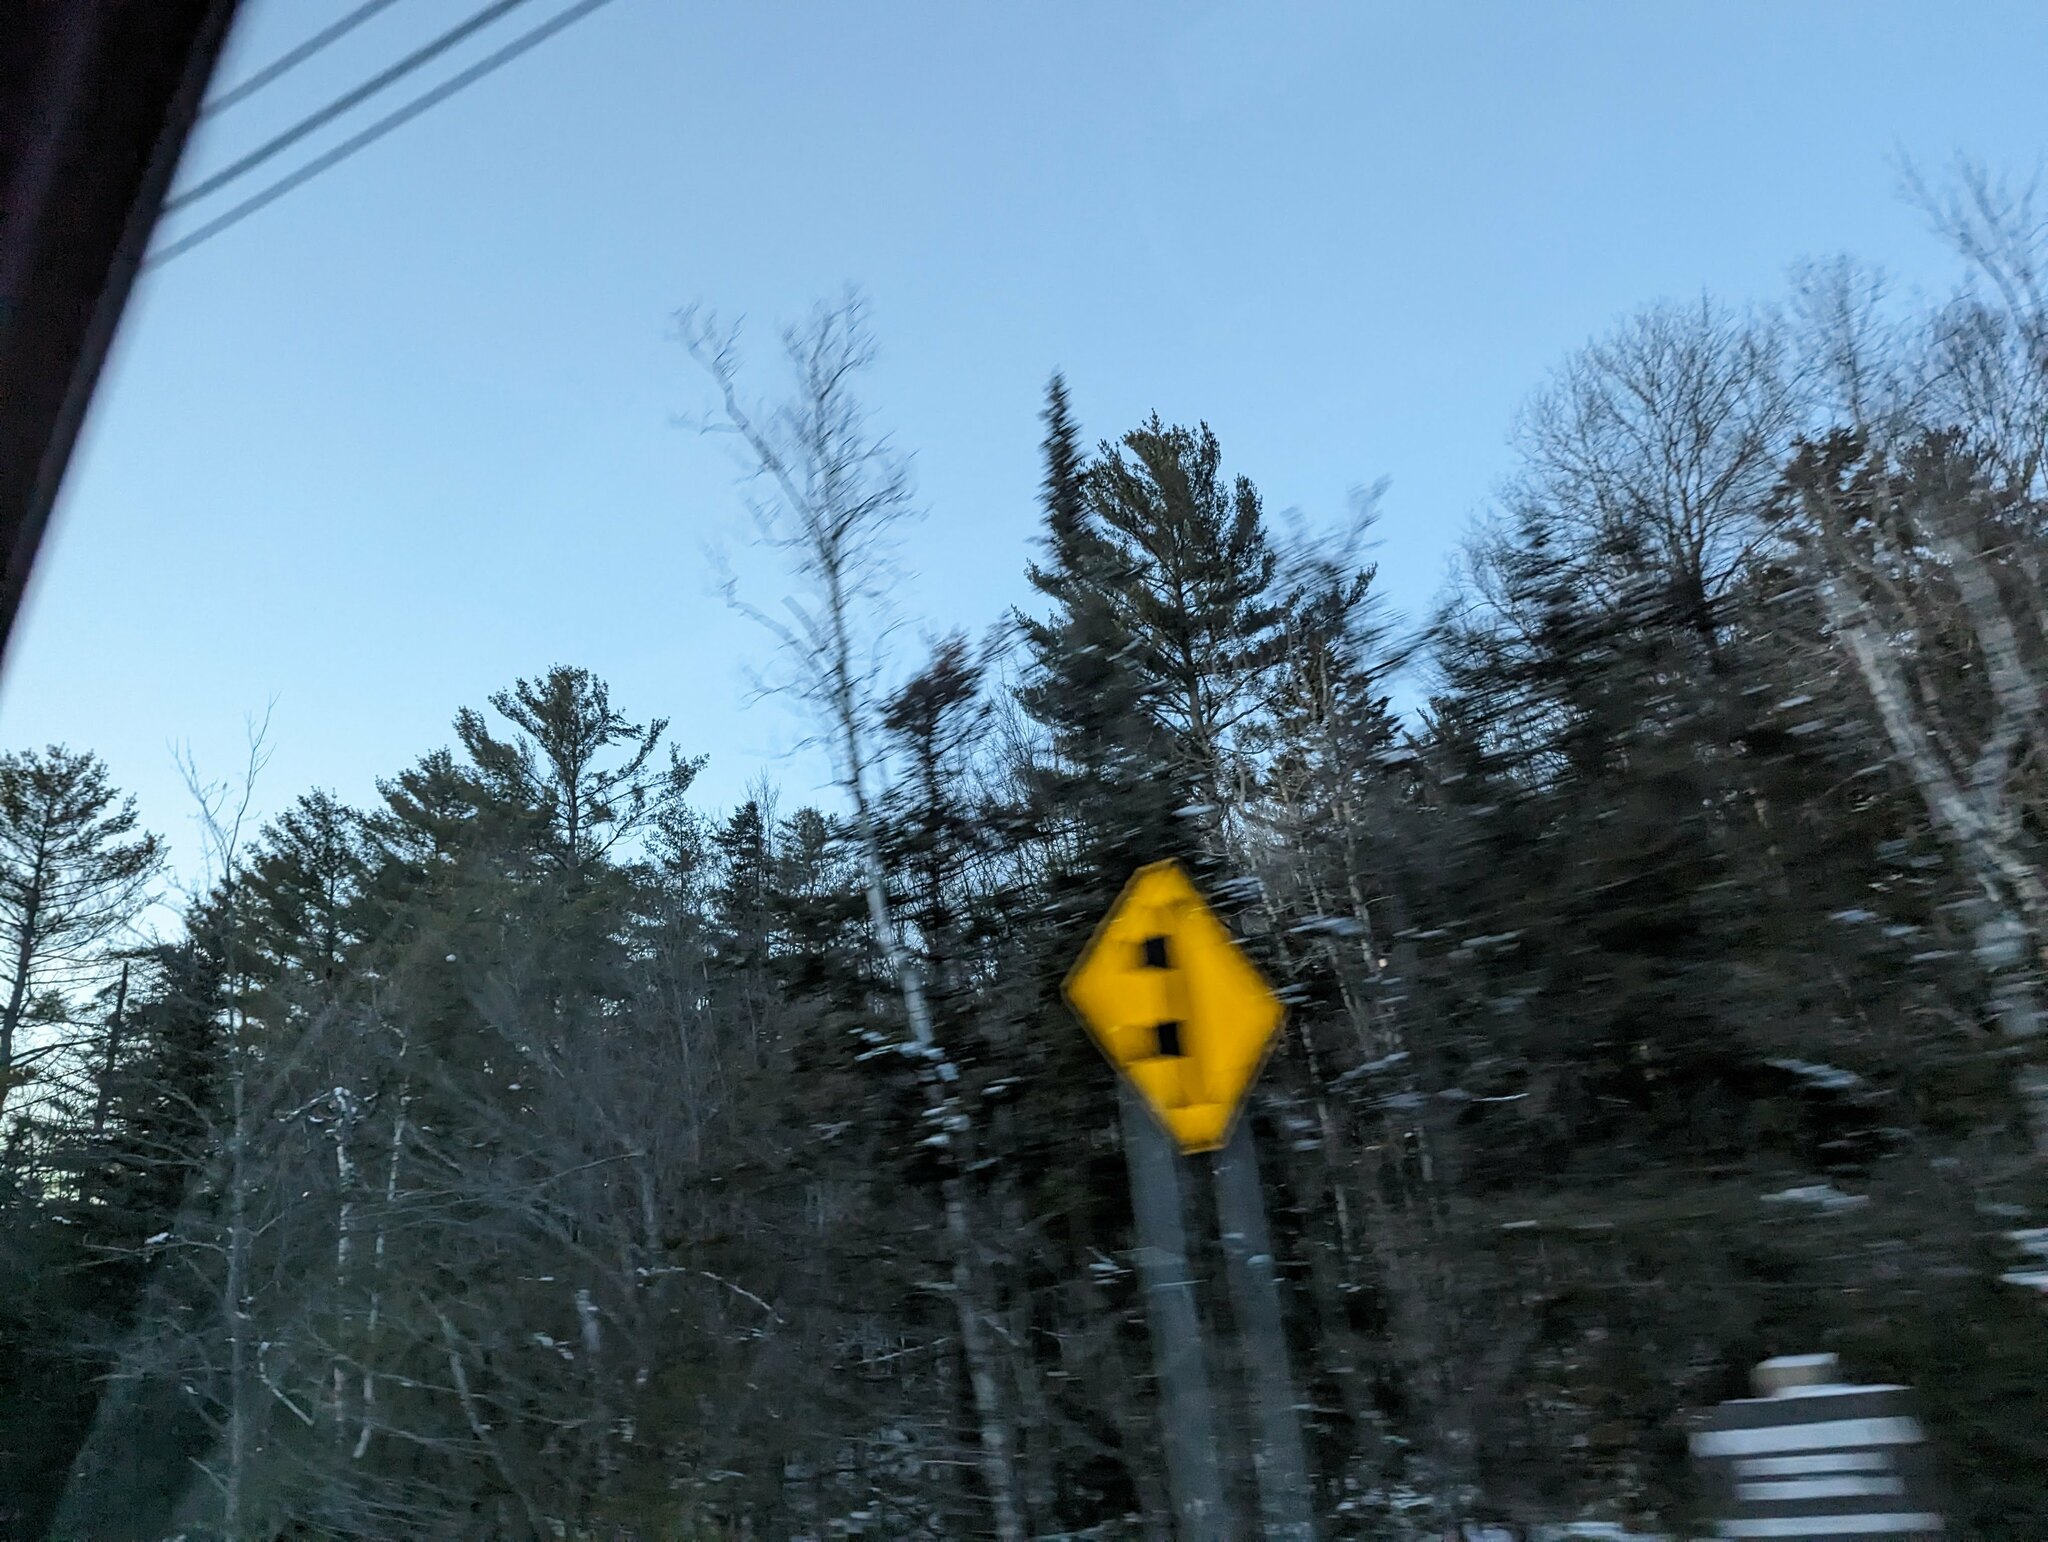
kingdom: Plantae
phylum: Tracheophyta
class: Pinopsida
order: Pinales
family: Pinaceae
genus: Pinus
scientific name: Pinus strobus
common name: Weymouth pine
